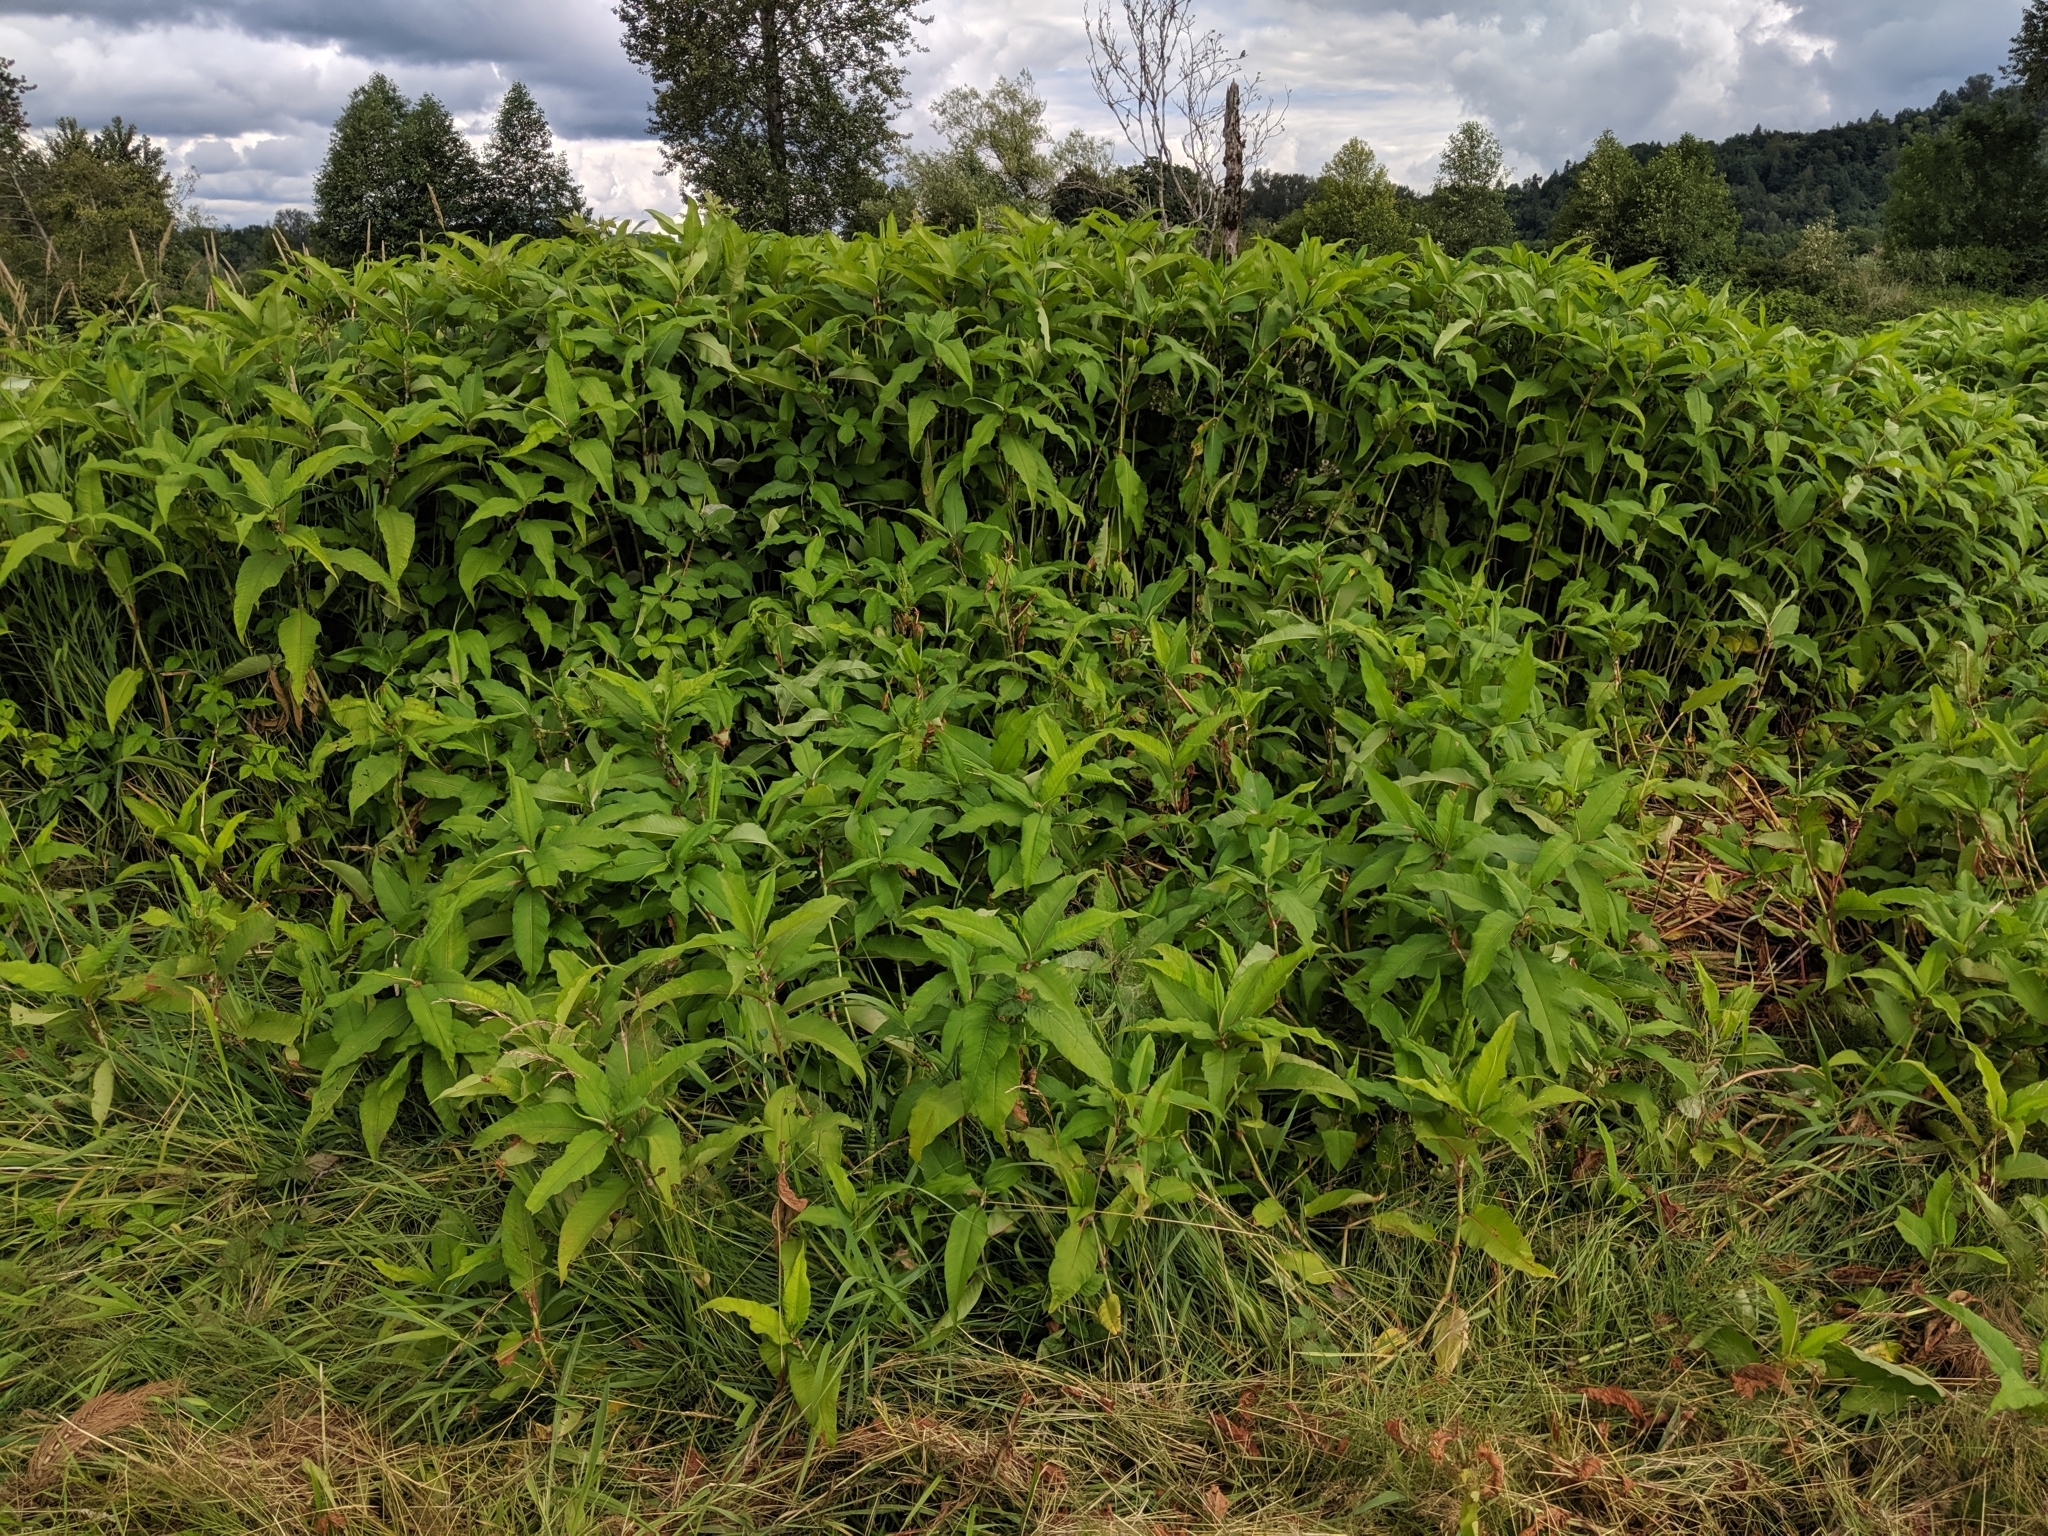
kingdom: Plantae
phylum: Tracheophyta
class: Magnoliopsida
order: Caryophyllales
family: Polygonaceae
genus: Koenigia
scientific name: Koenigia polystachya
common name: Himalayan knotweed
